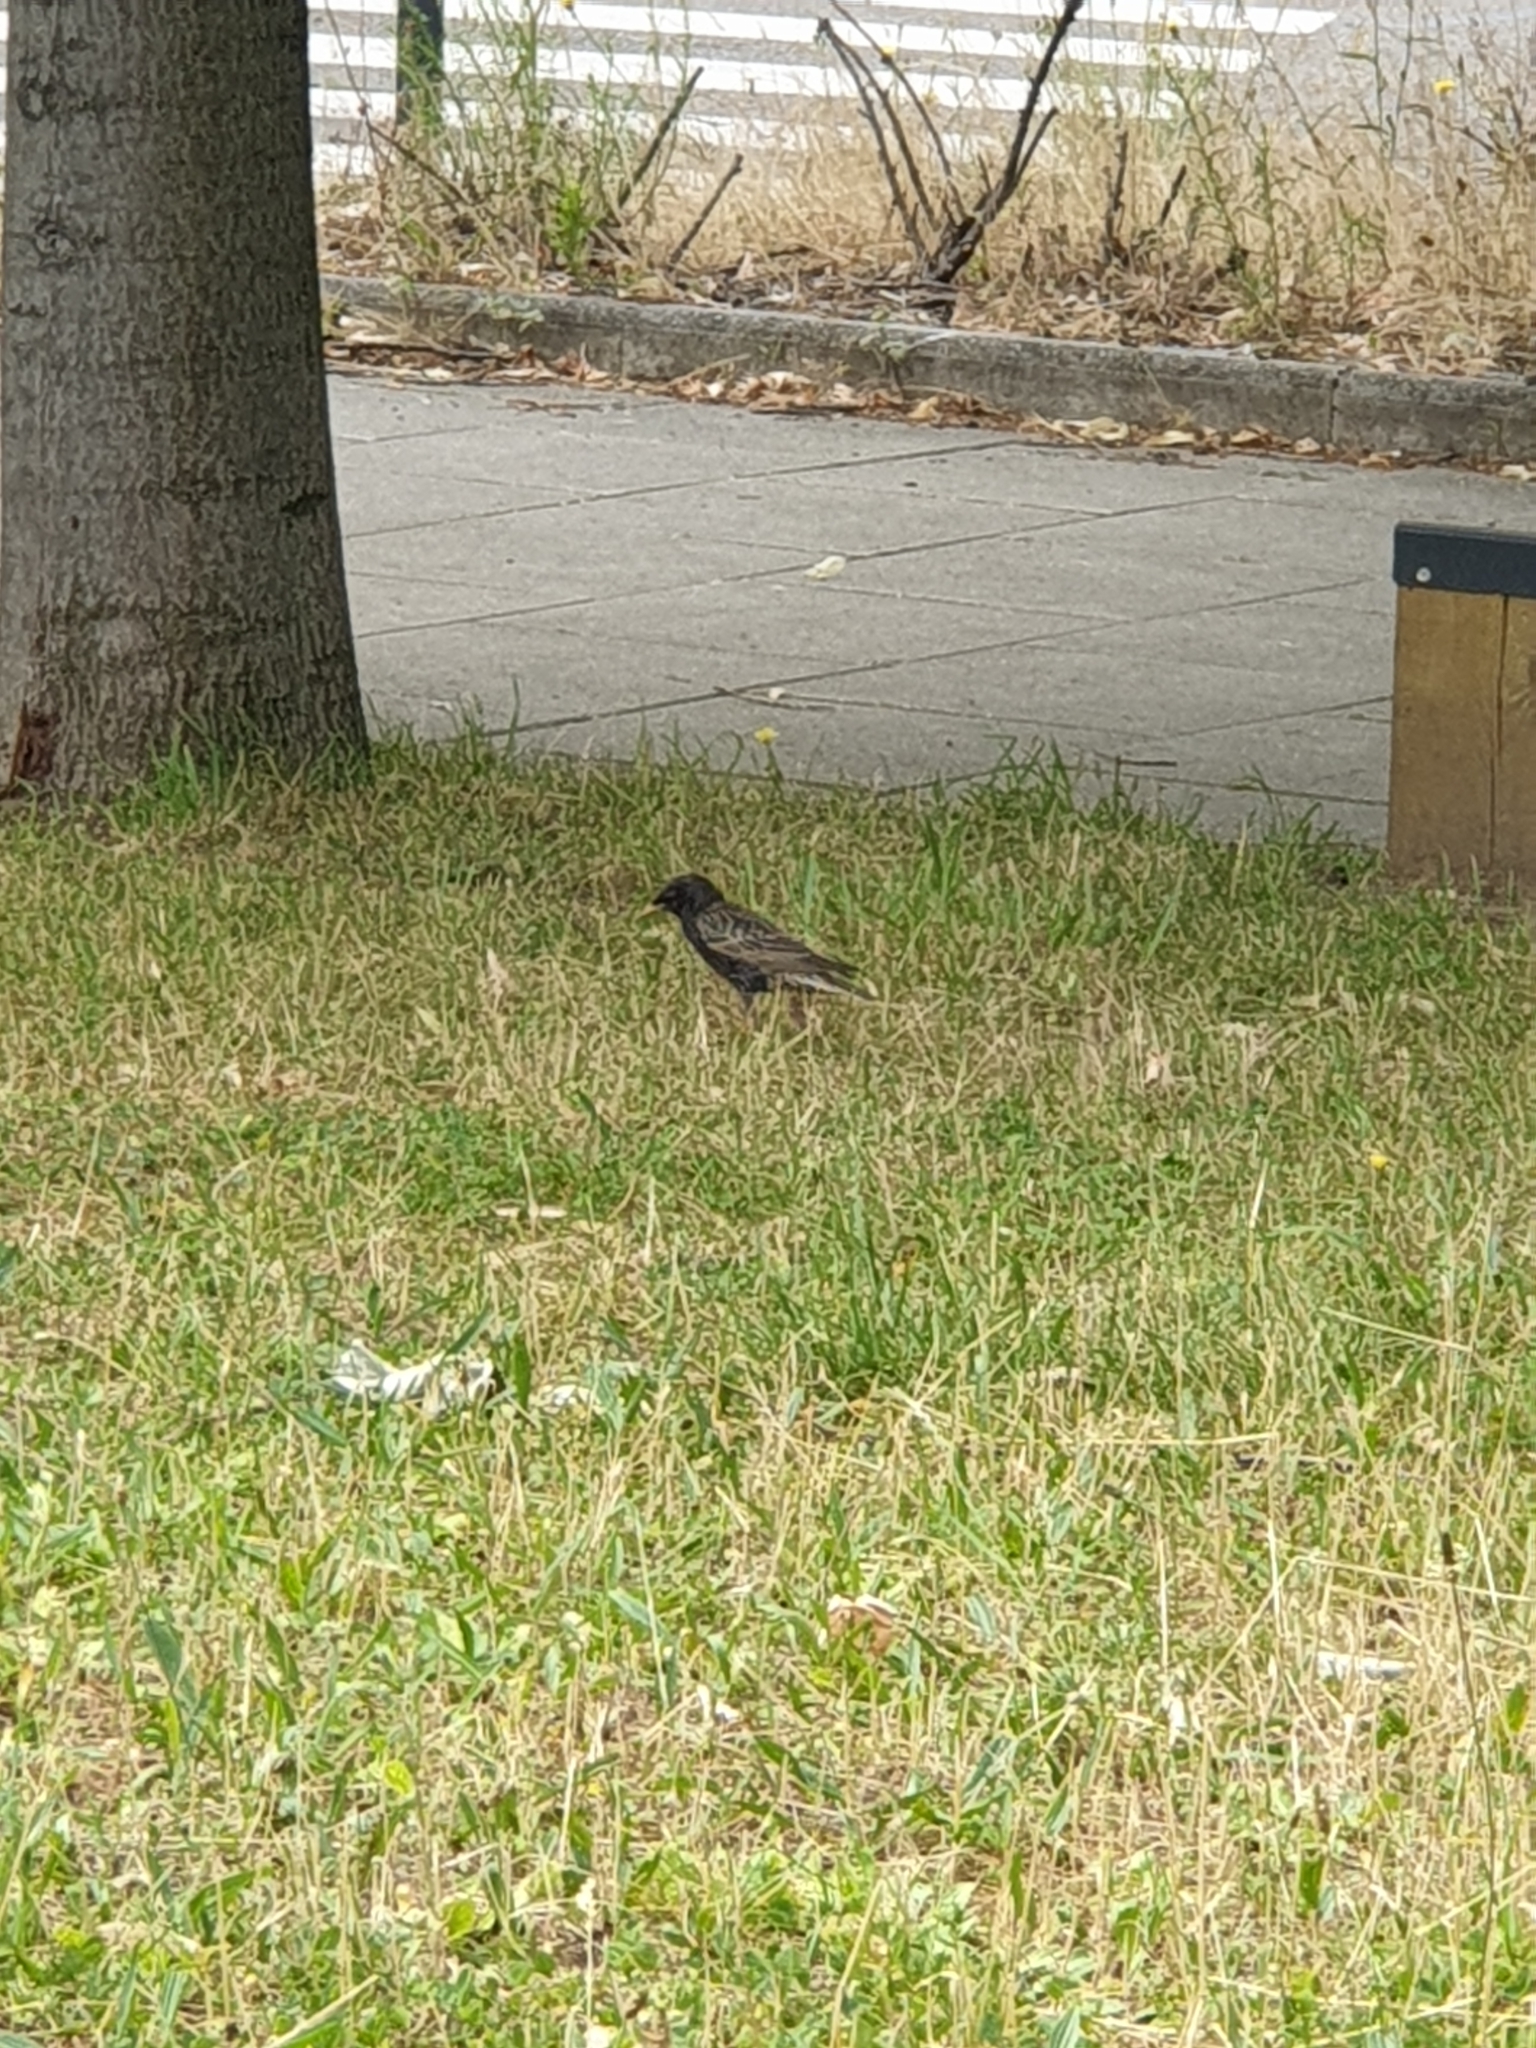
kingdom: Animalia
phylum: Chordata
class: Aves
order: Passeriformes
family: Sturnidae
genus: Sturnus
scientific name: Sturnus vulgaris
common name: Common starling
